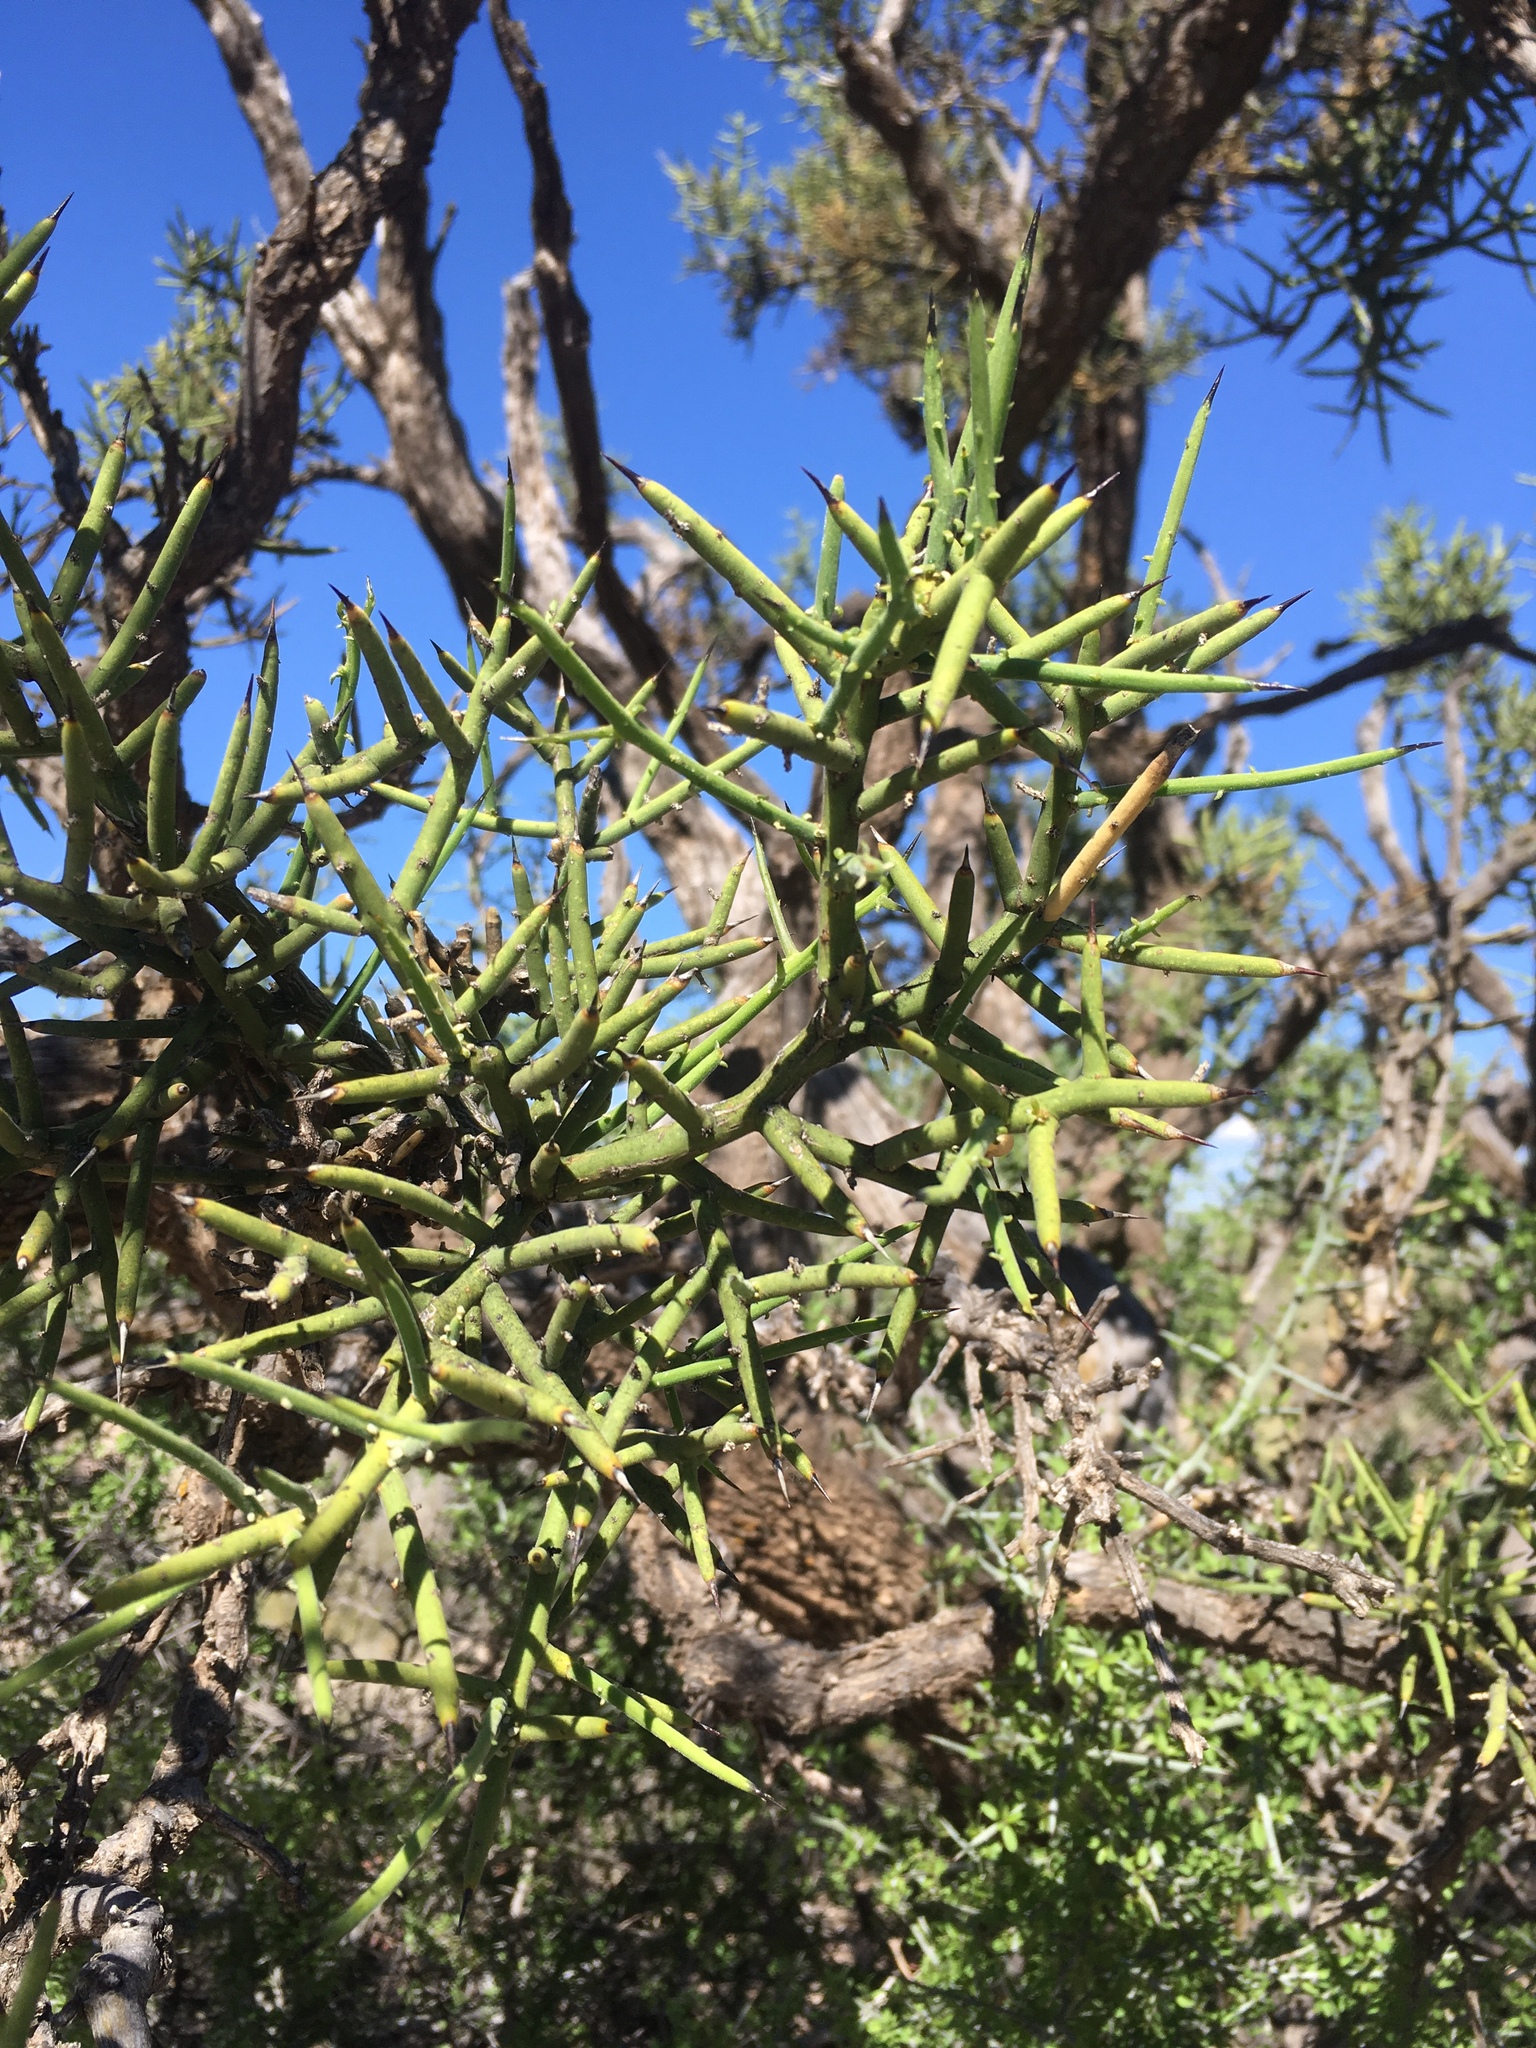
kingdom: Plantae
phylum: Tracheophyta
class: Magnoliopsida
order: Brassicales
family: Koeberliniaceae
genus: Koeberlinia
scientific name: Koeberlinia spinosa
